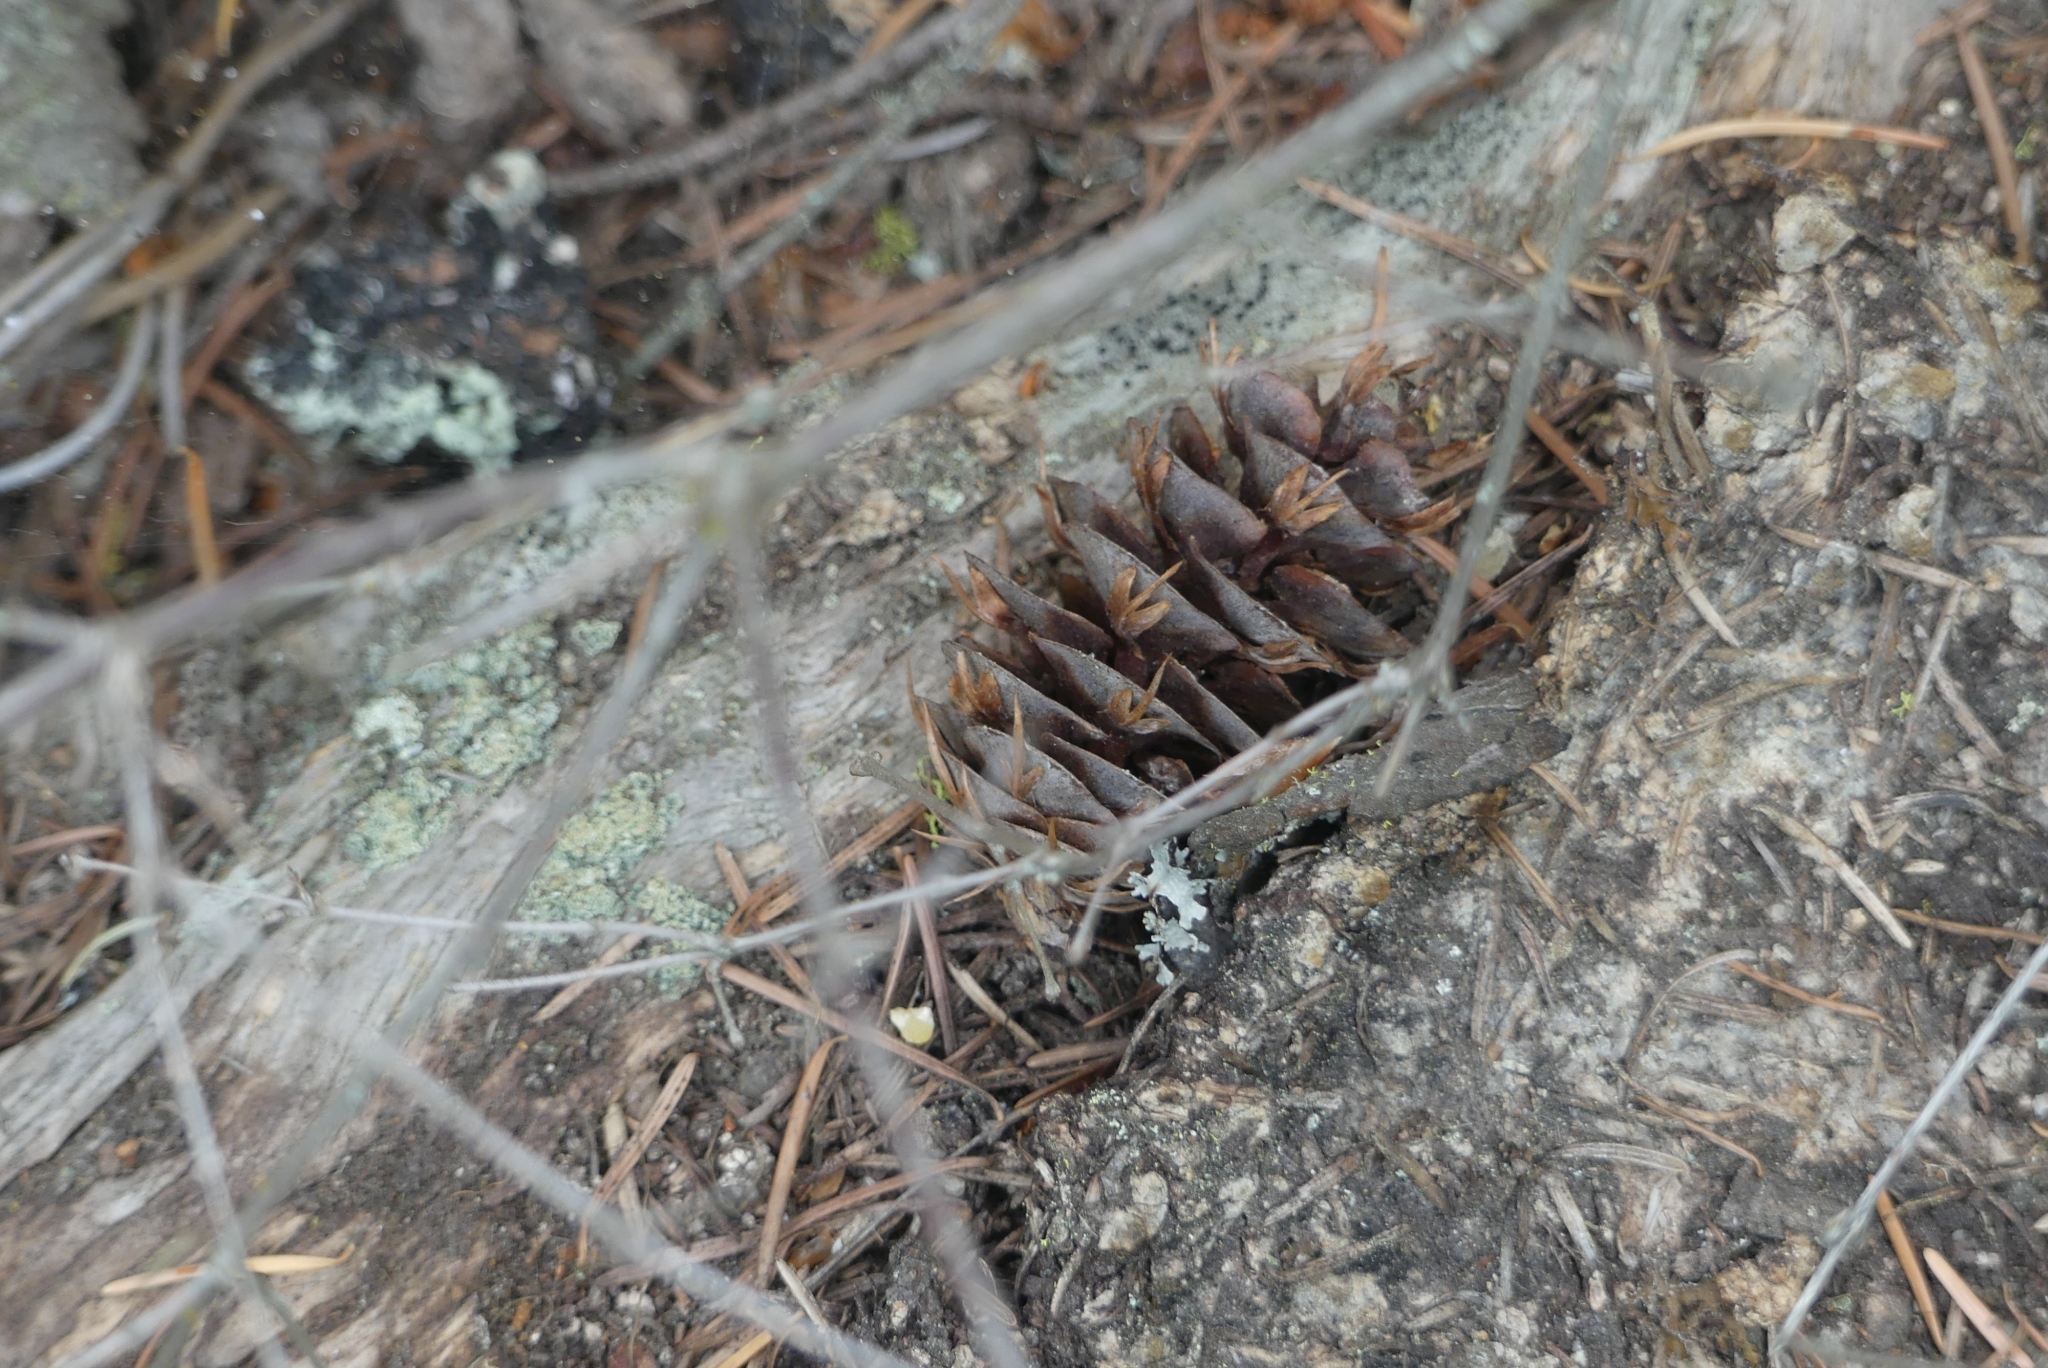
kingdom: Plantae
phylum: Tracheophyta
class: Pinopsida
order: Pinales
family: Pinaceae
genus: Pseudotsuga
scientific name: Pseudotsuga menziesii
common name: Douglas fir
